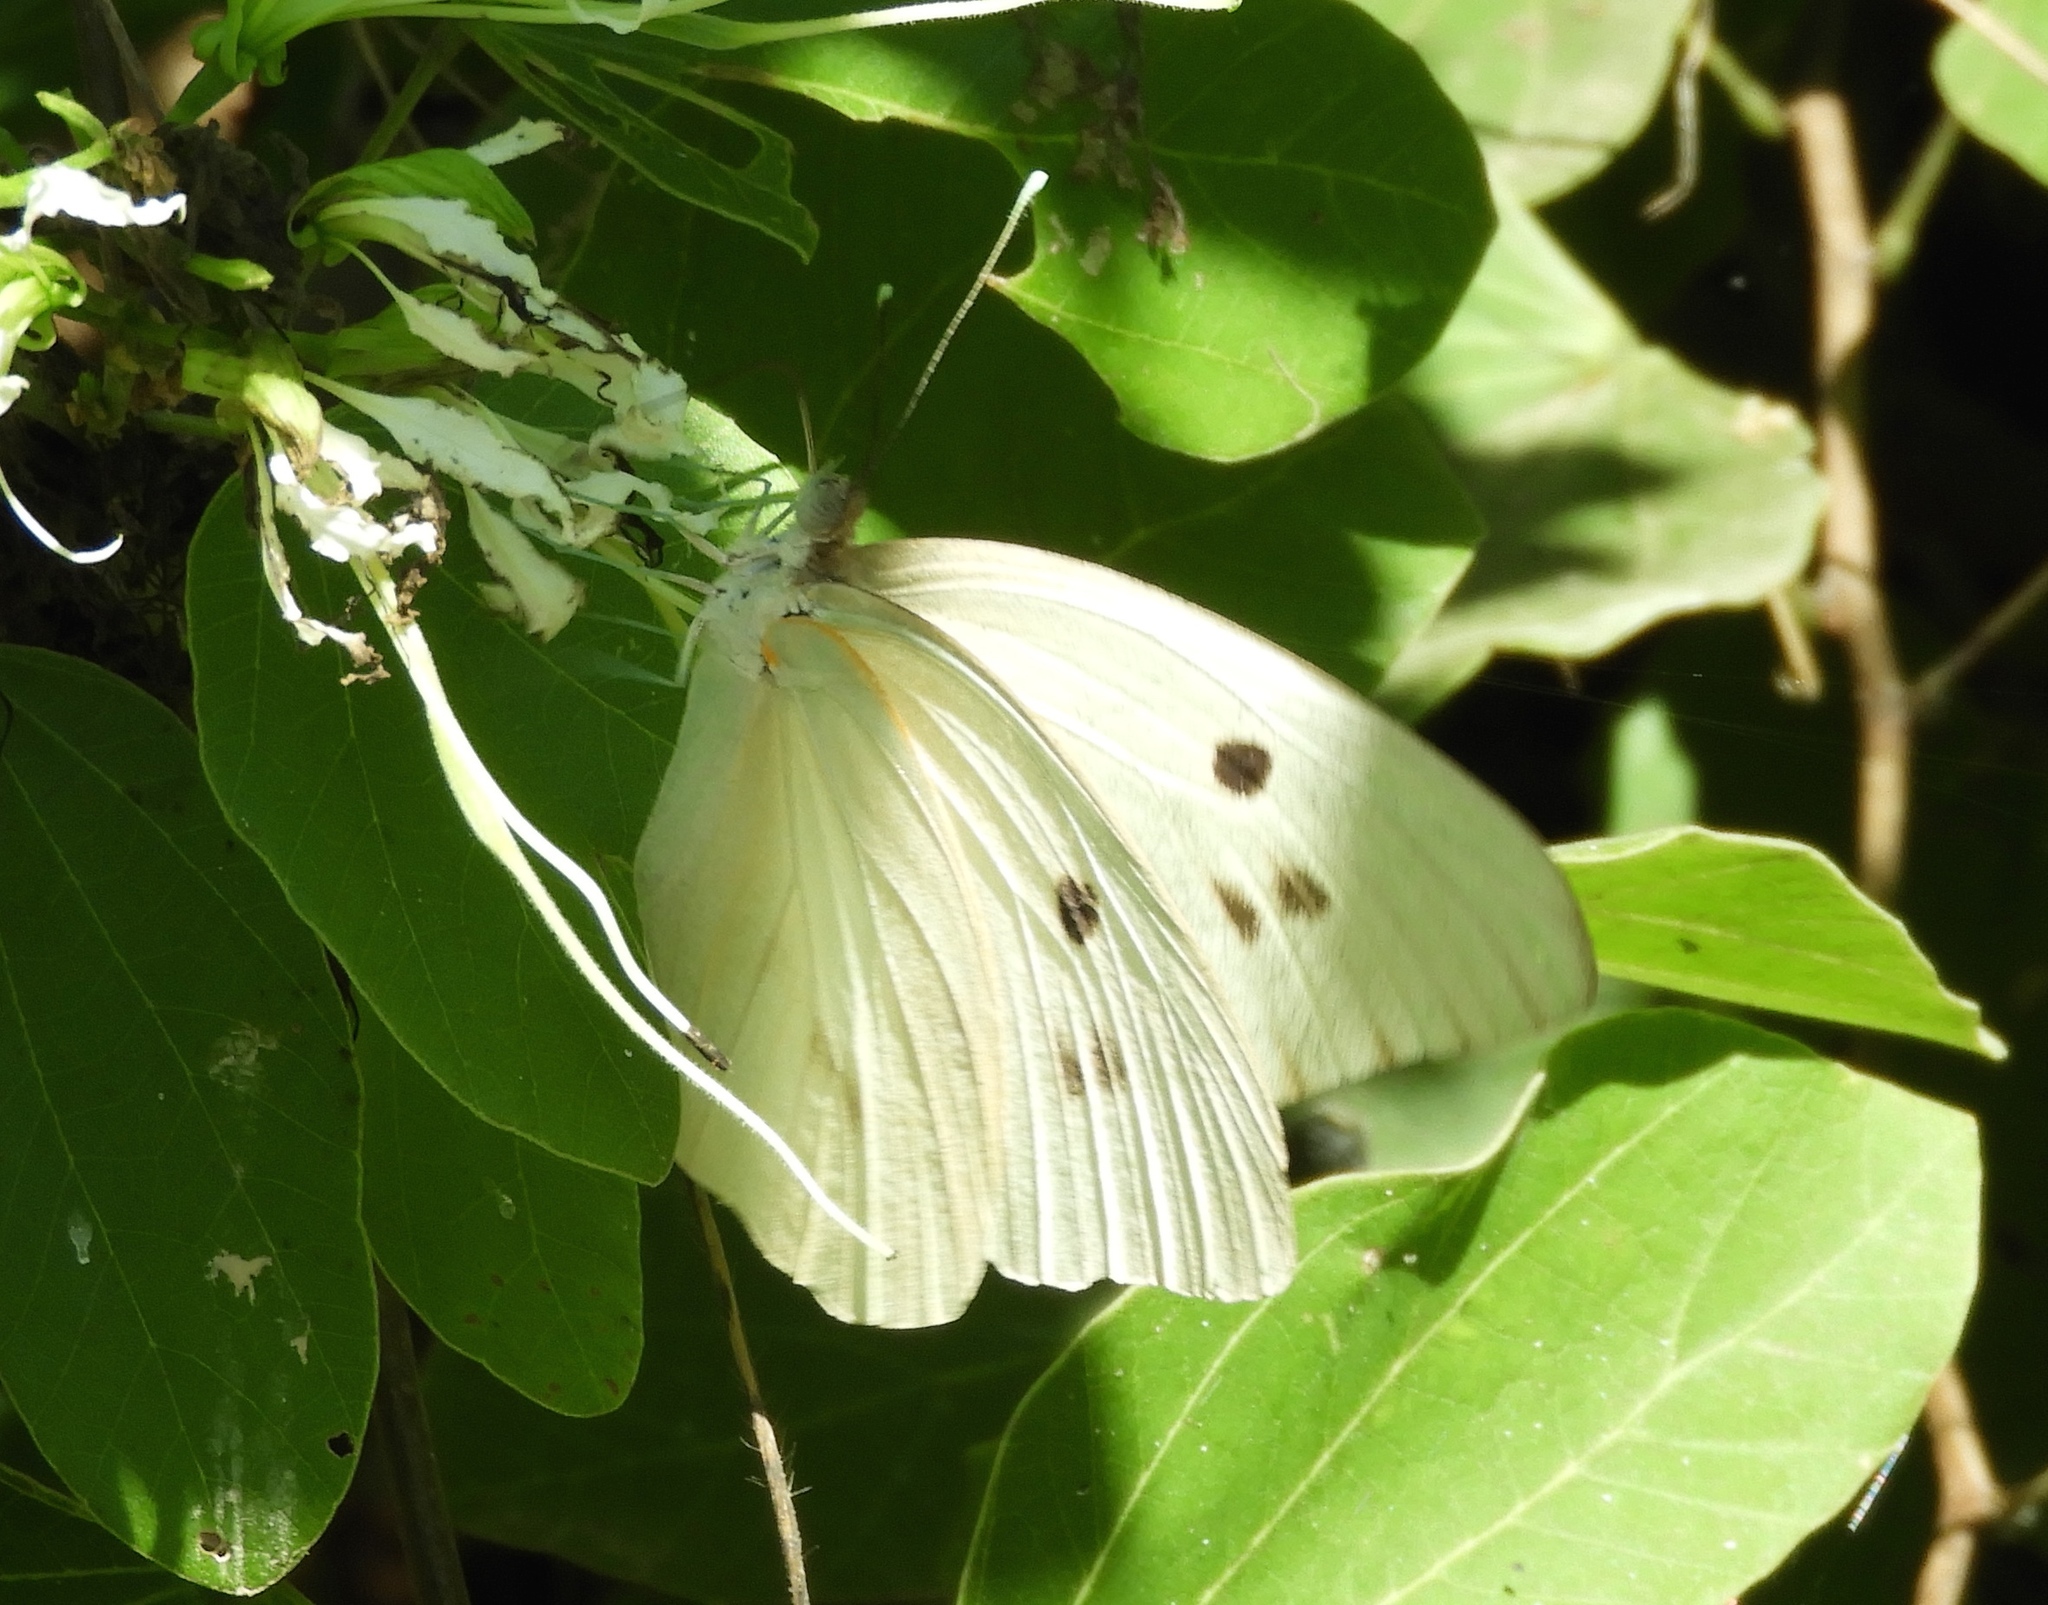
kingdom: Animalia
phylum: Arthropoda
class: Insecta
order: Lepidoptera
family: Pieridae
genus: Ganyra
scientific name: Ganyra josephina
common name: Giant white
